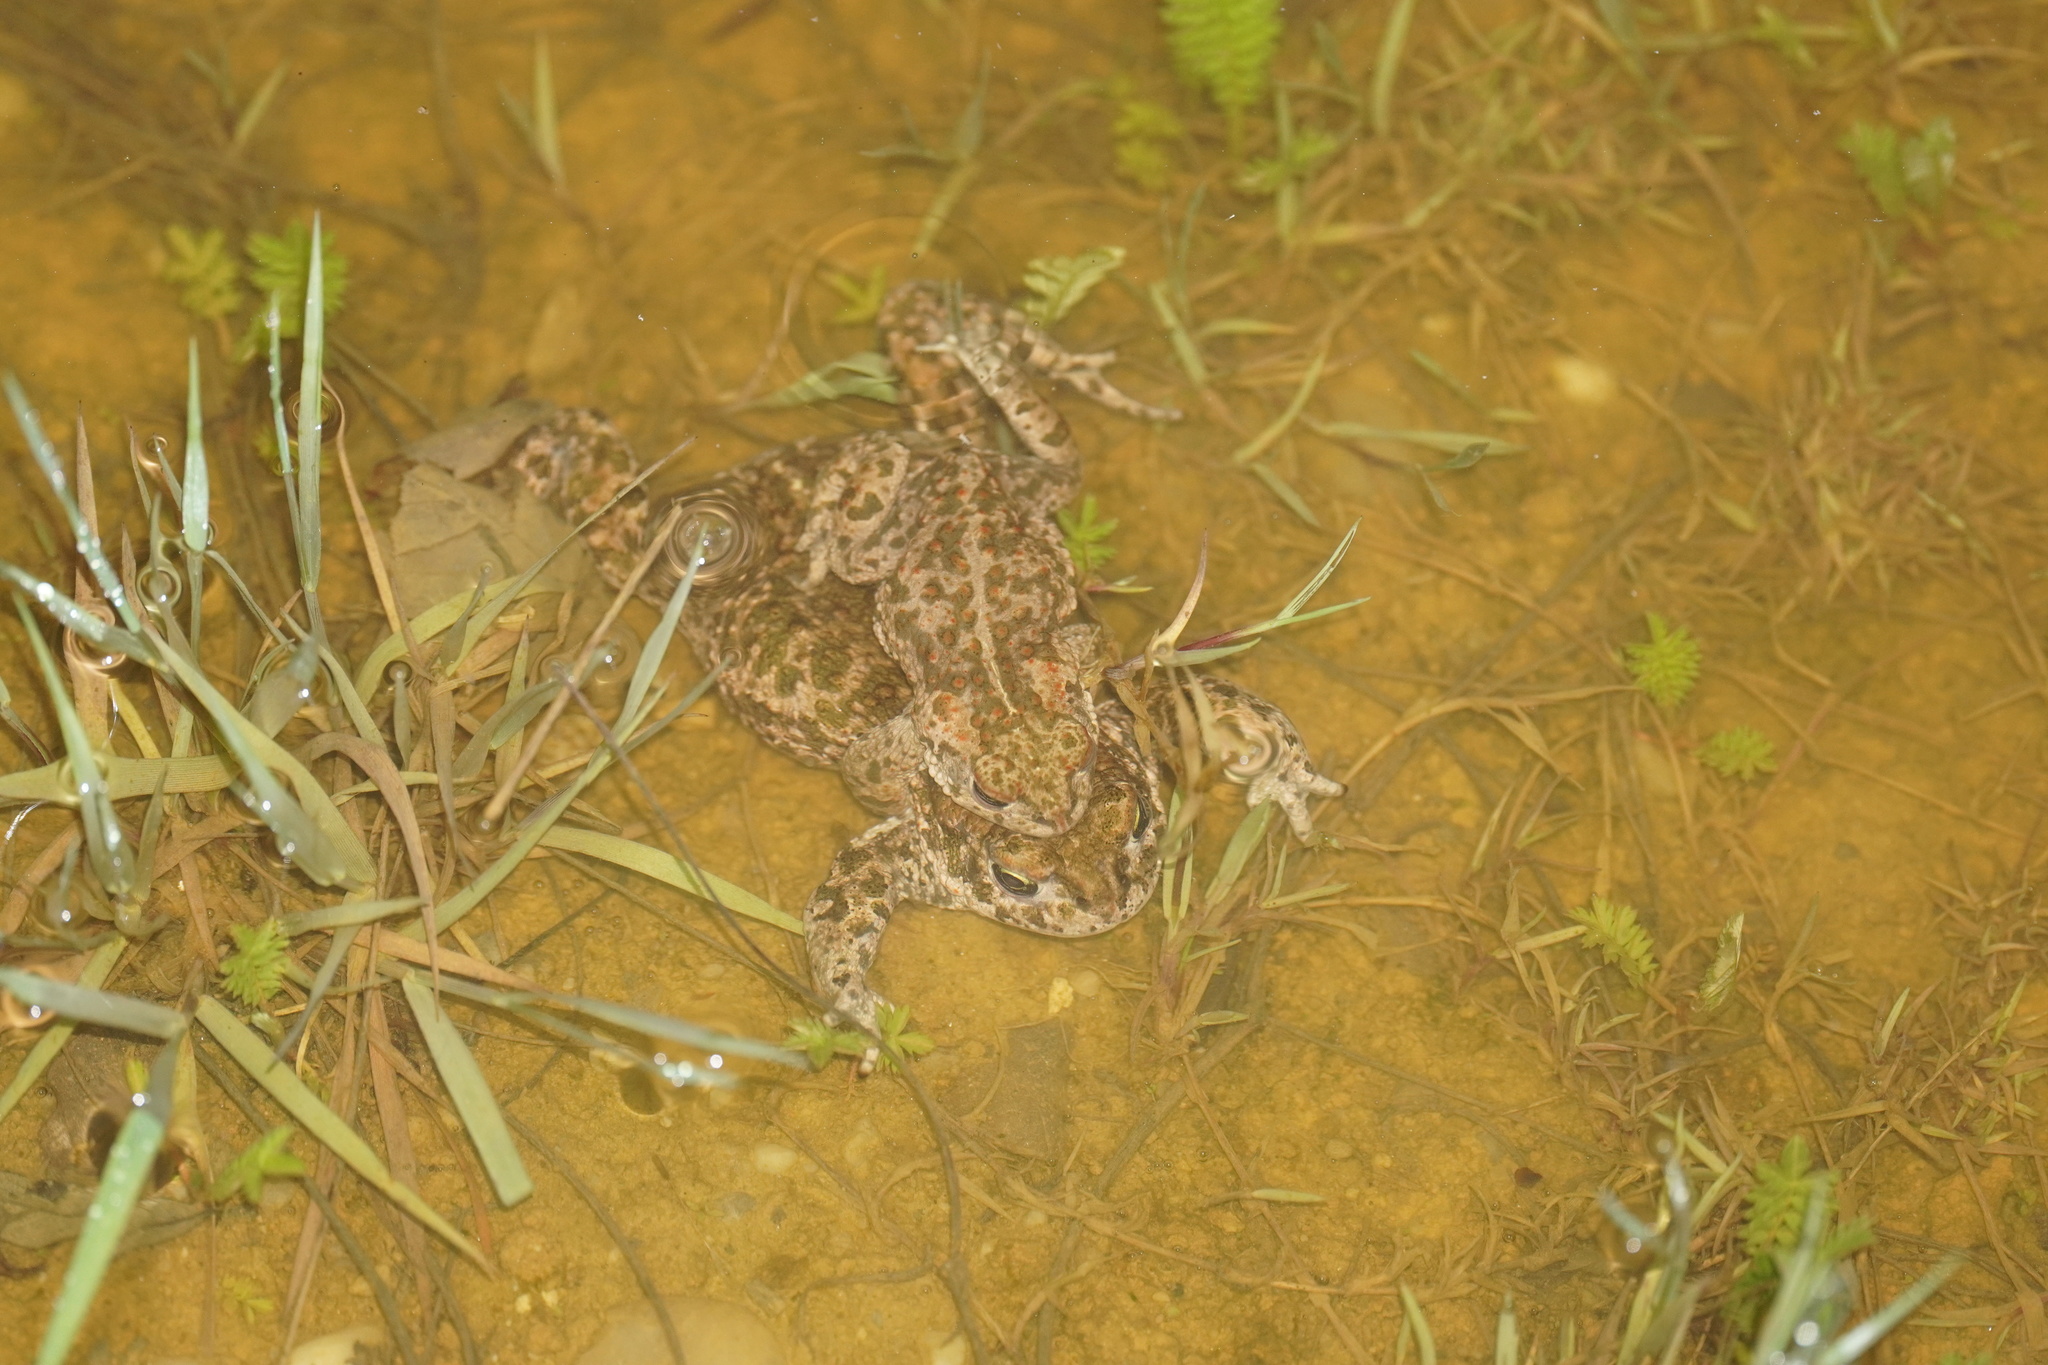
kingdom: Animalia
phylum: Chordata
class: Amphibia
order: Anura
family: Bufonidae
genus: Epidalea
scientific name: Epidalea calamita
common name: Natterjack toad
